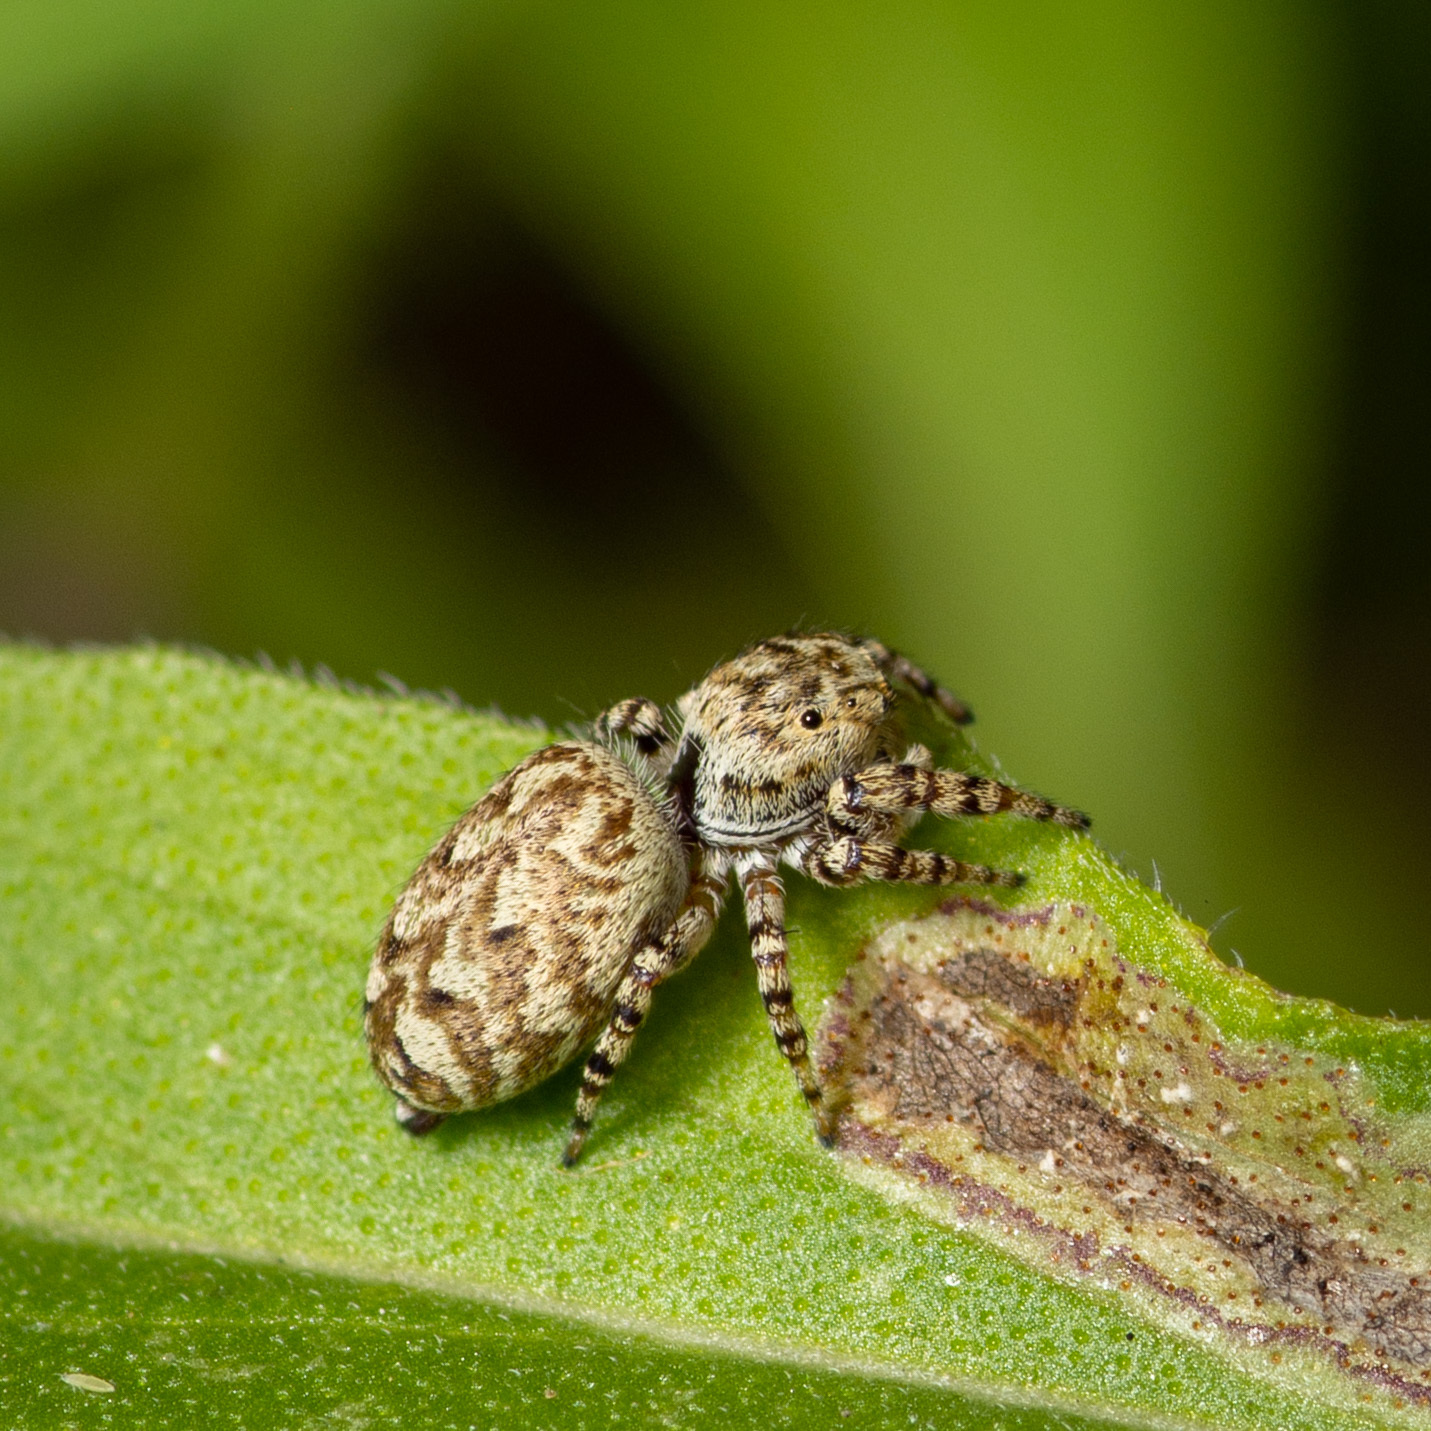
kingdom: Animalia
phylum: Arthropoda
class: Arachnida
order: Araneae
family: Salticidae
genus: Pelegrina
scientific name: Pelegrina galathea
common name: Jumping spiders
